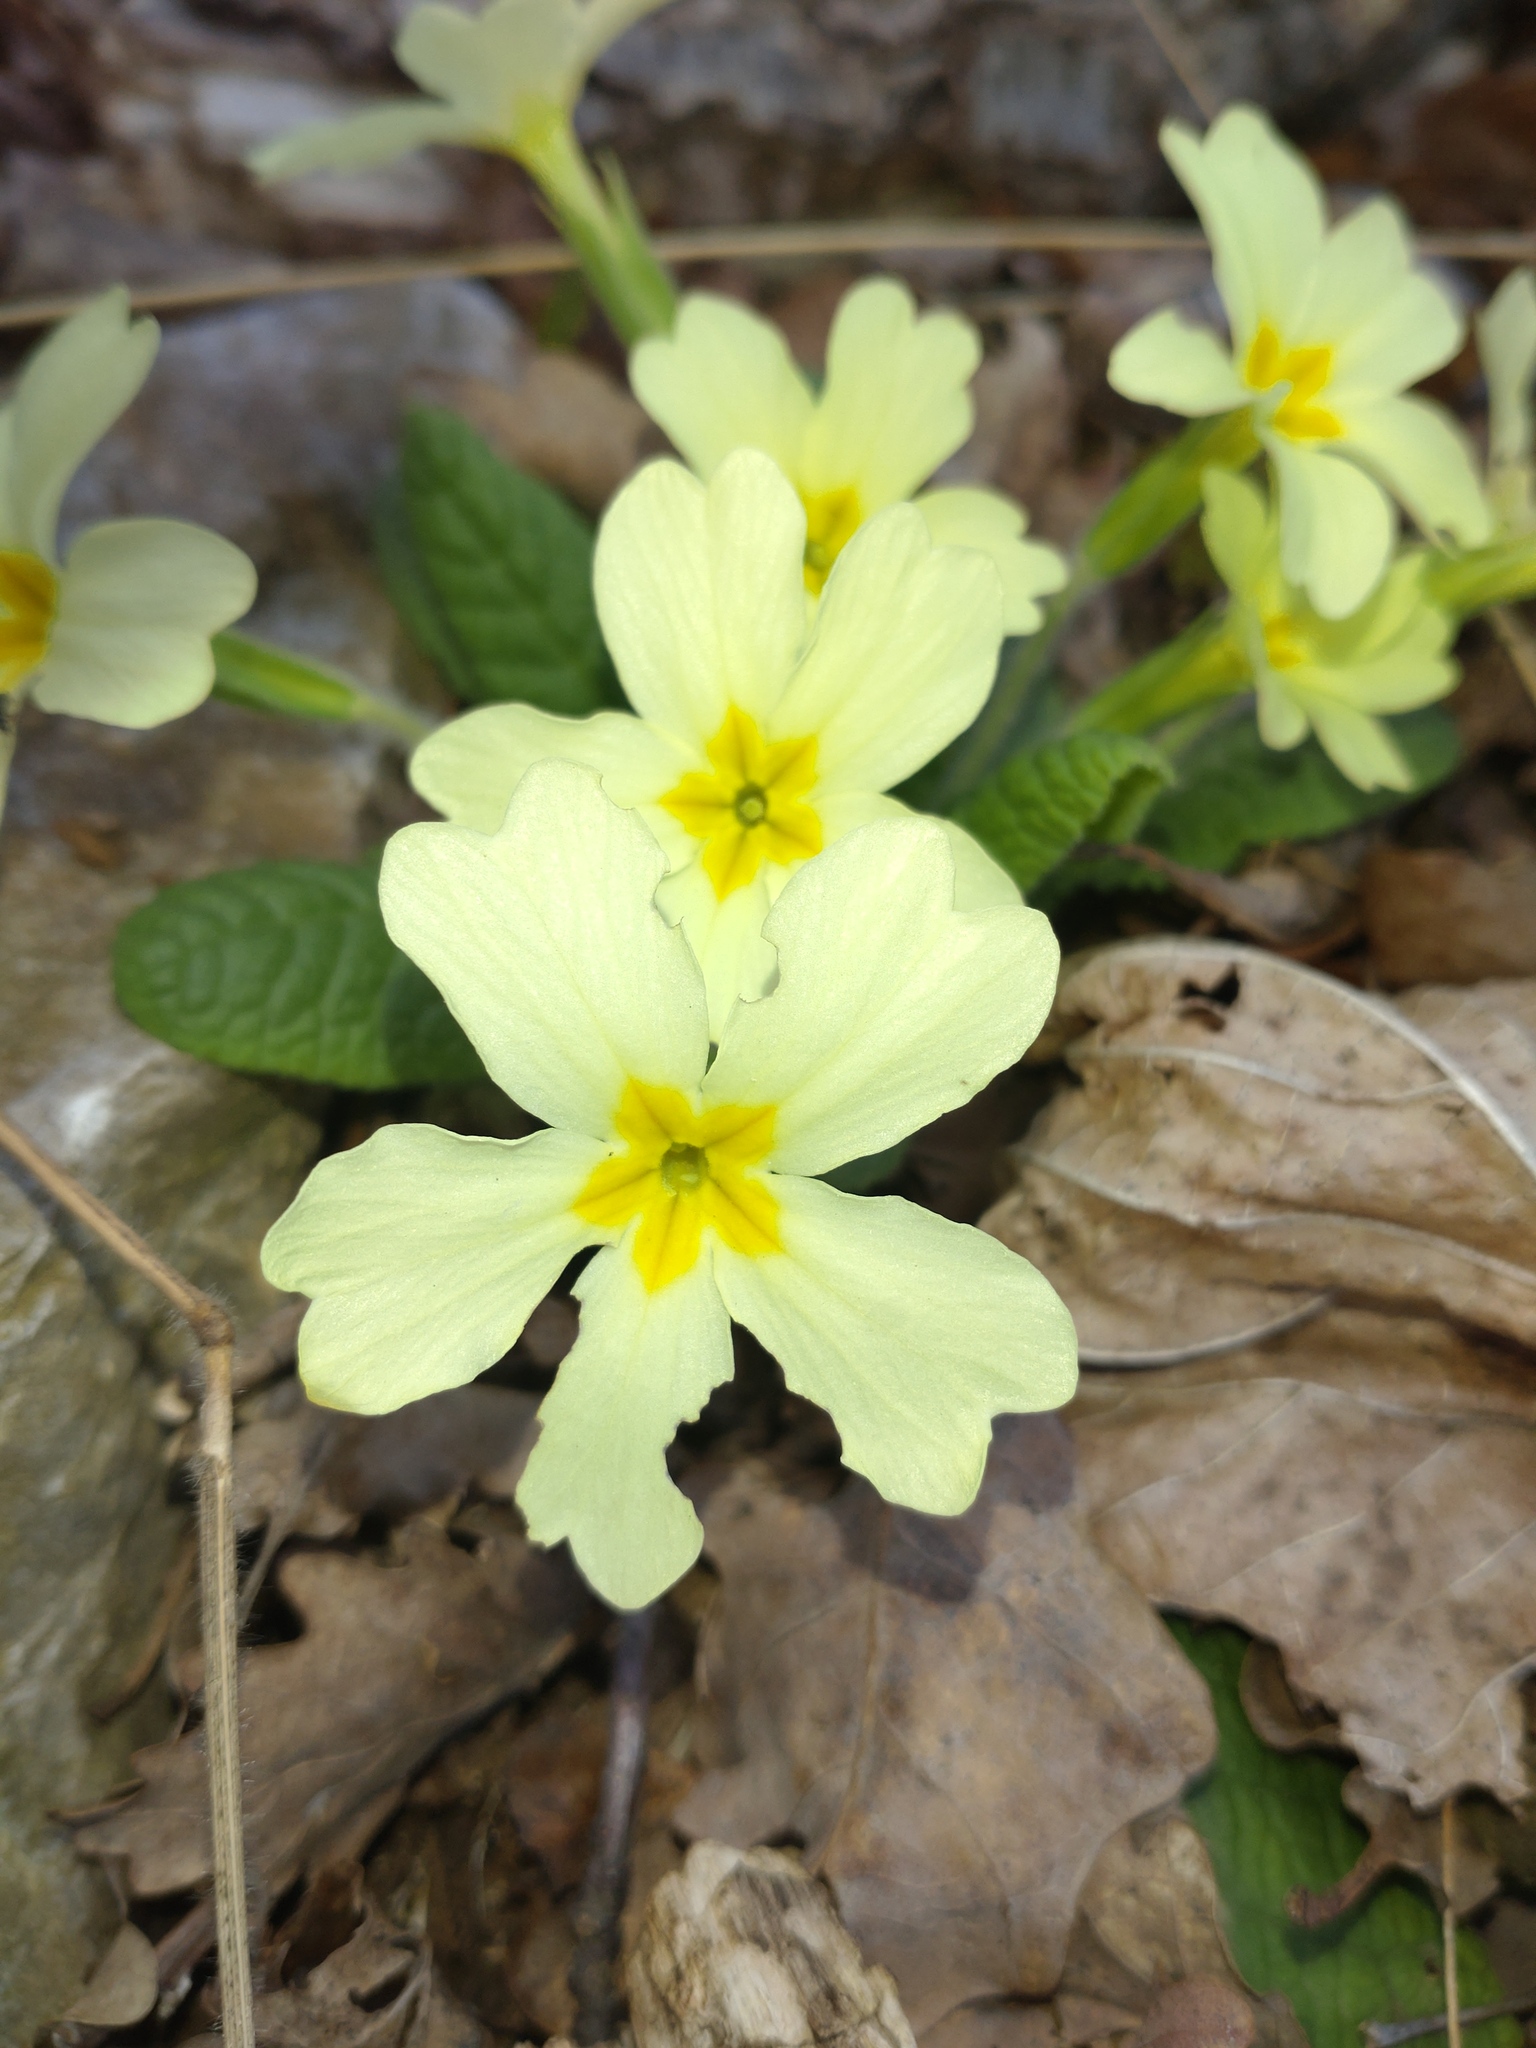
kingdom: Plantae
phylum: Tracheophyta
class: Magnoliopsida
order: Ericales
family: Primulaceae
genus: Primula
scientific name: Primula vulgaris
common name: Primrose
